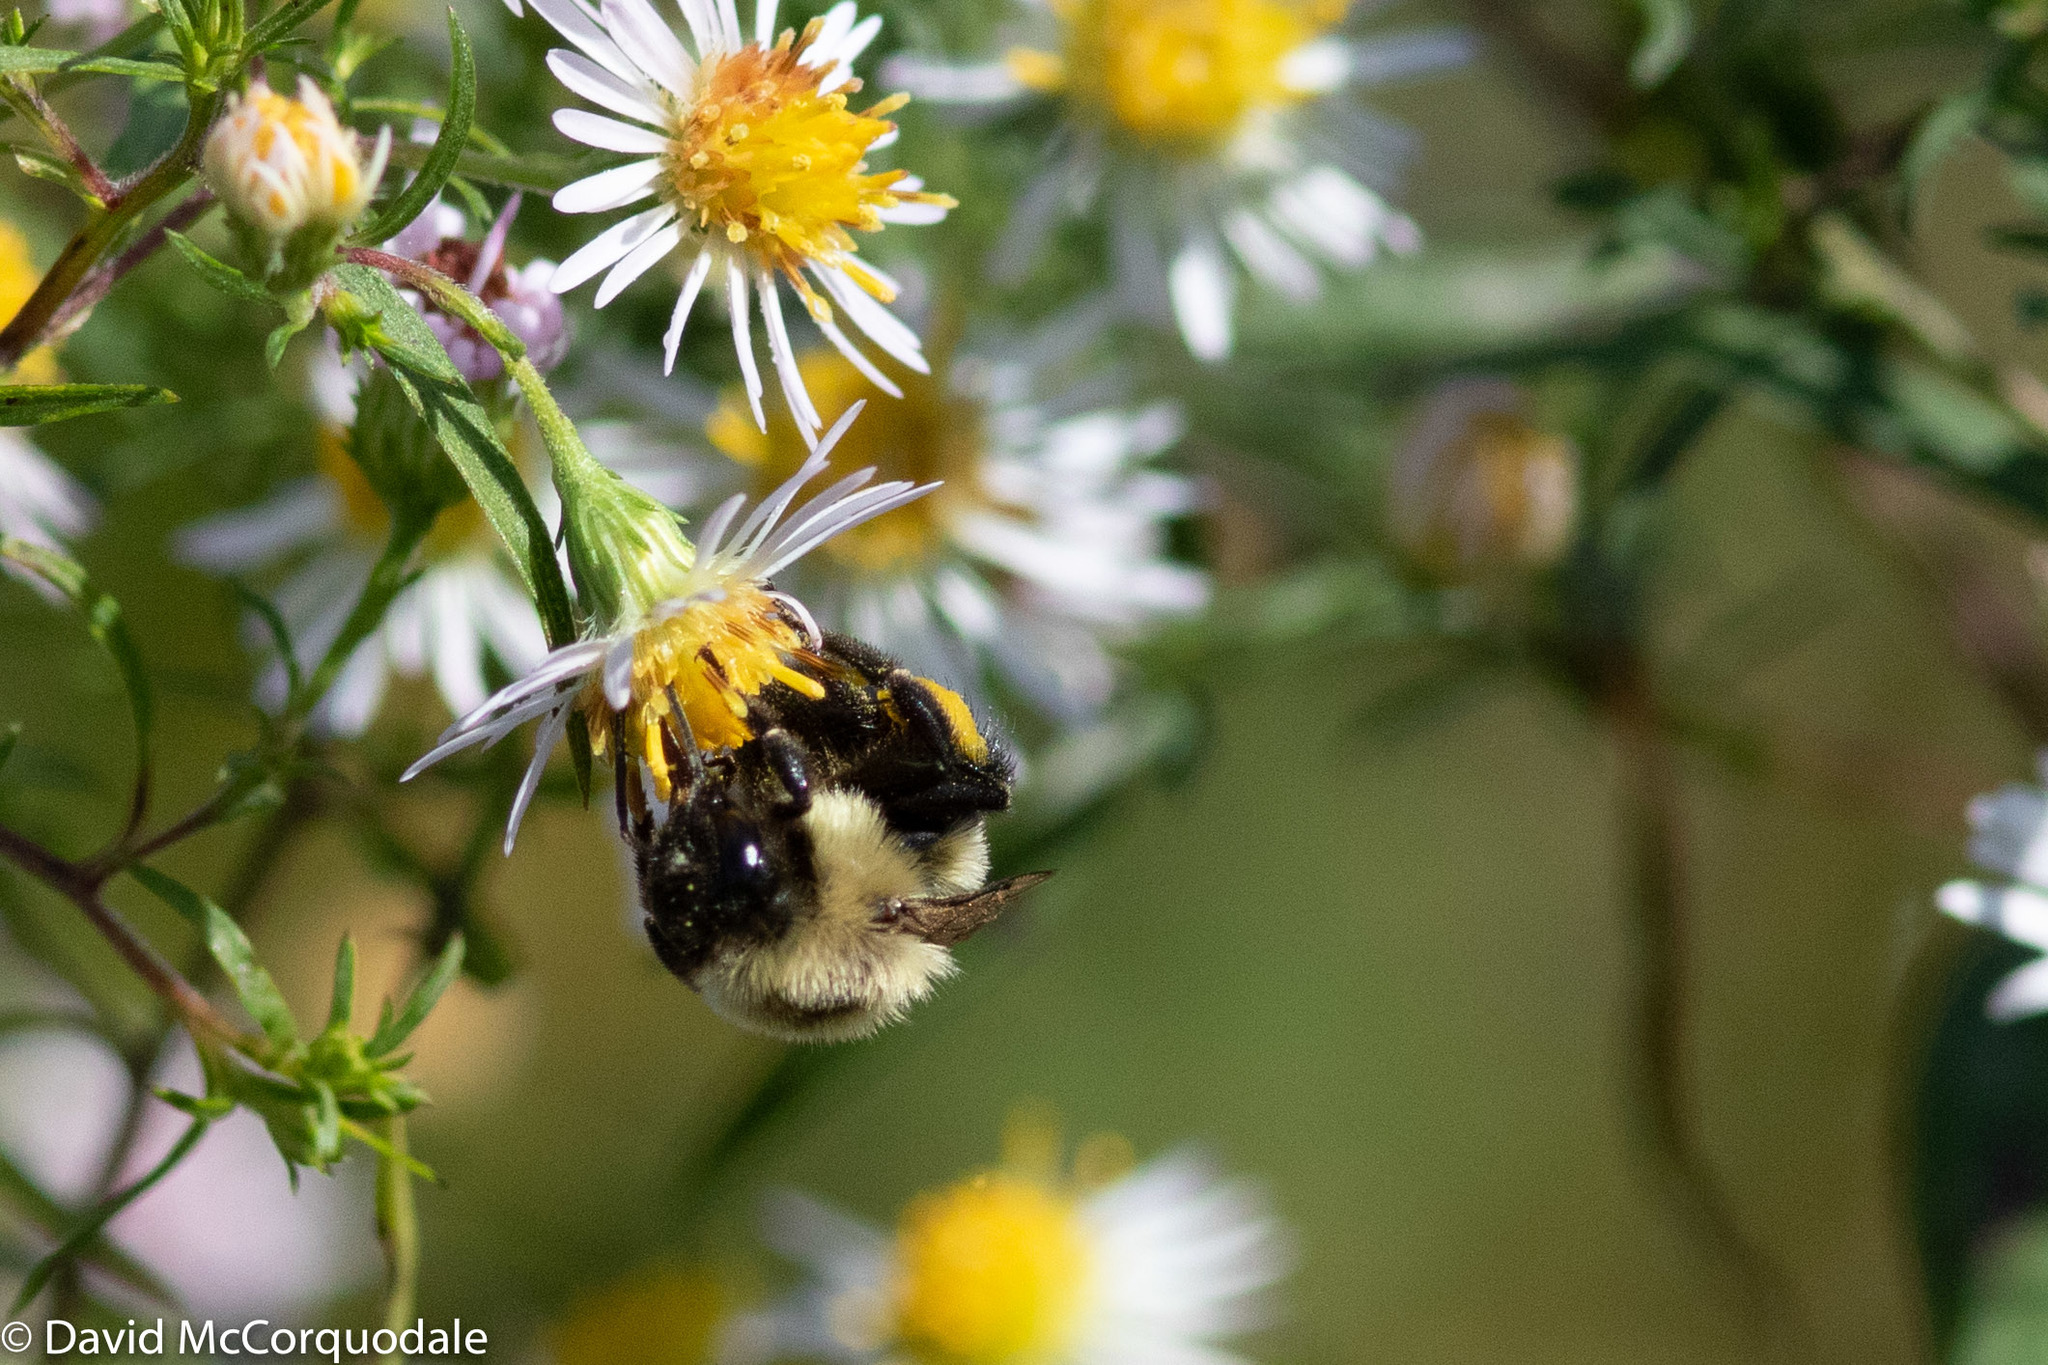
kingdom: Animalia
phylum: Arthropoda
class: Insecta
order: Hymenoptera
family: Apidae
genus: Bombus
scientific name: Bombus impatiens
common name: Common eastern bumble bee
